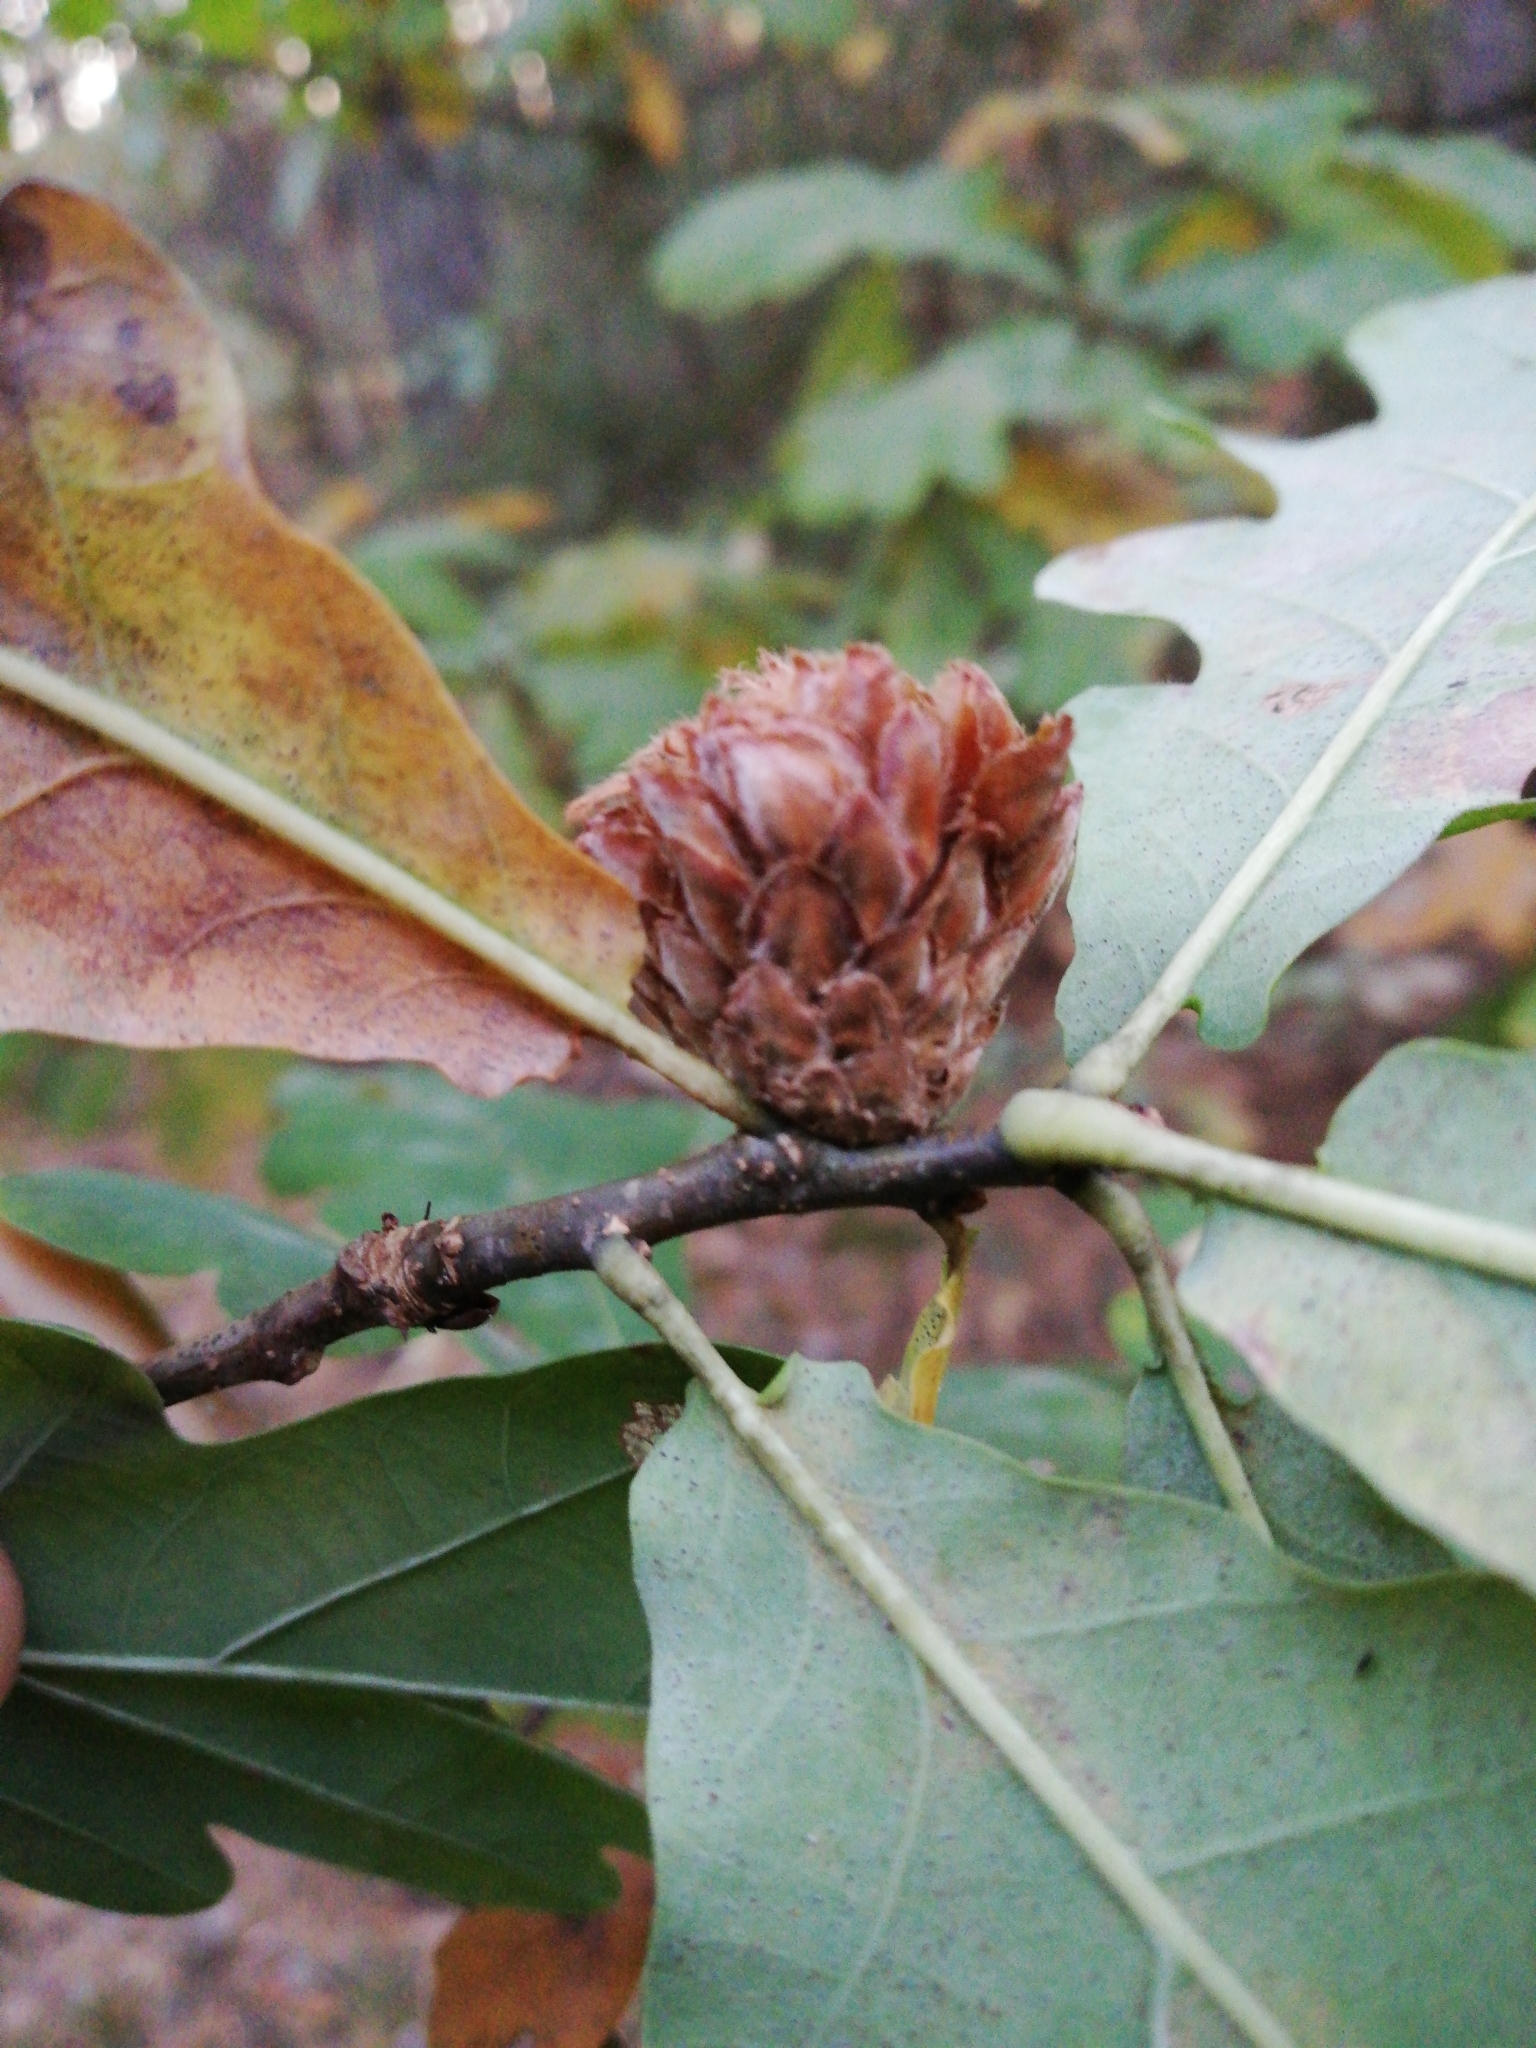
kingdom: Animalia
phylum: Arthropoda
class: Insecta
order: Hymenoptera
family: Cynipidae
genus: Andricus
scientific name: Andricus foecundatrix
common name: Artichoke gall
